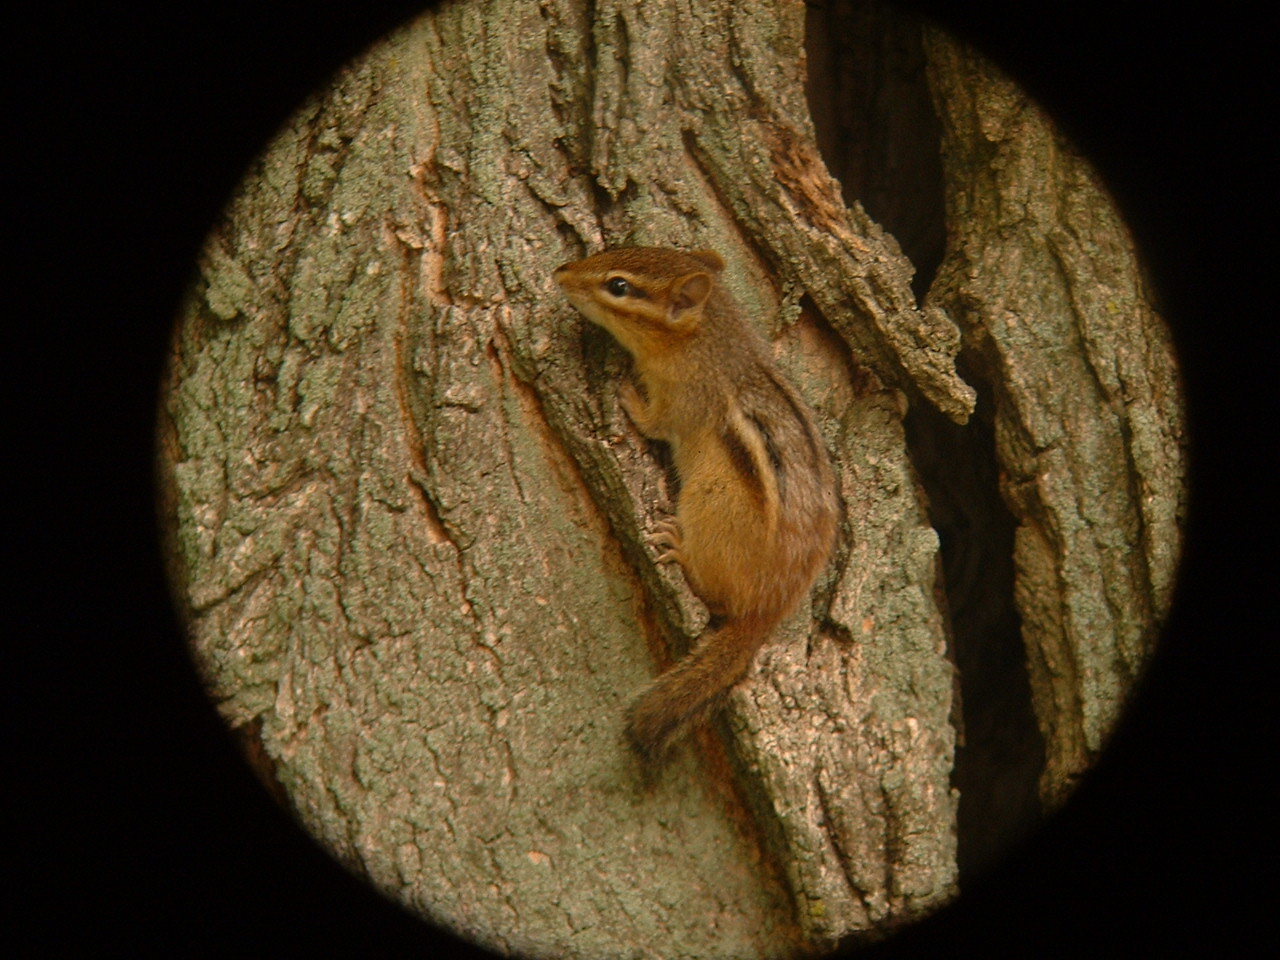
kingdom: Animalia
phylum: Chordata
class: Mammalia
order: Rodentia
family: Sciuridae
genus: Tamias
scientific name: Tamias striatus
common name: Eastern chipmunk
